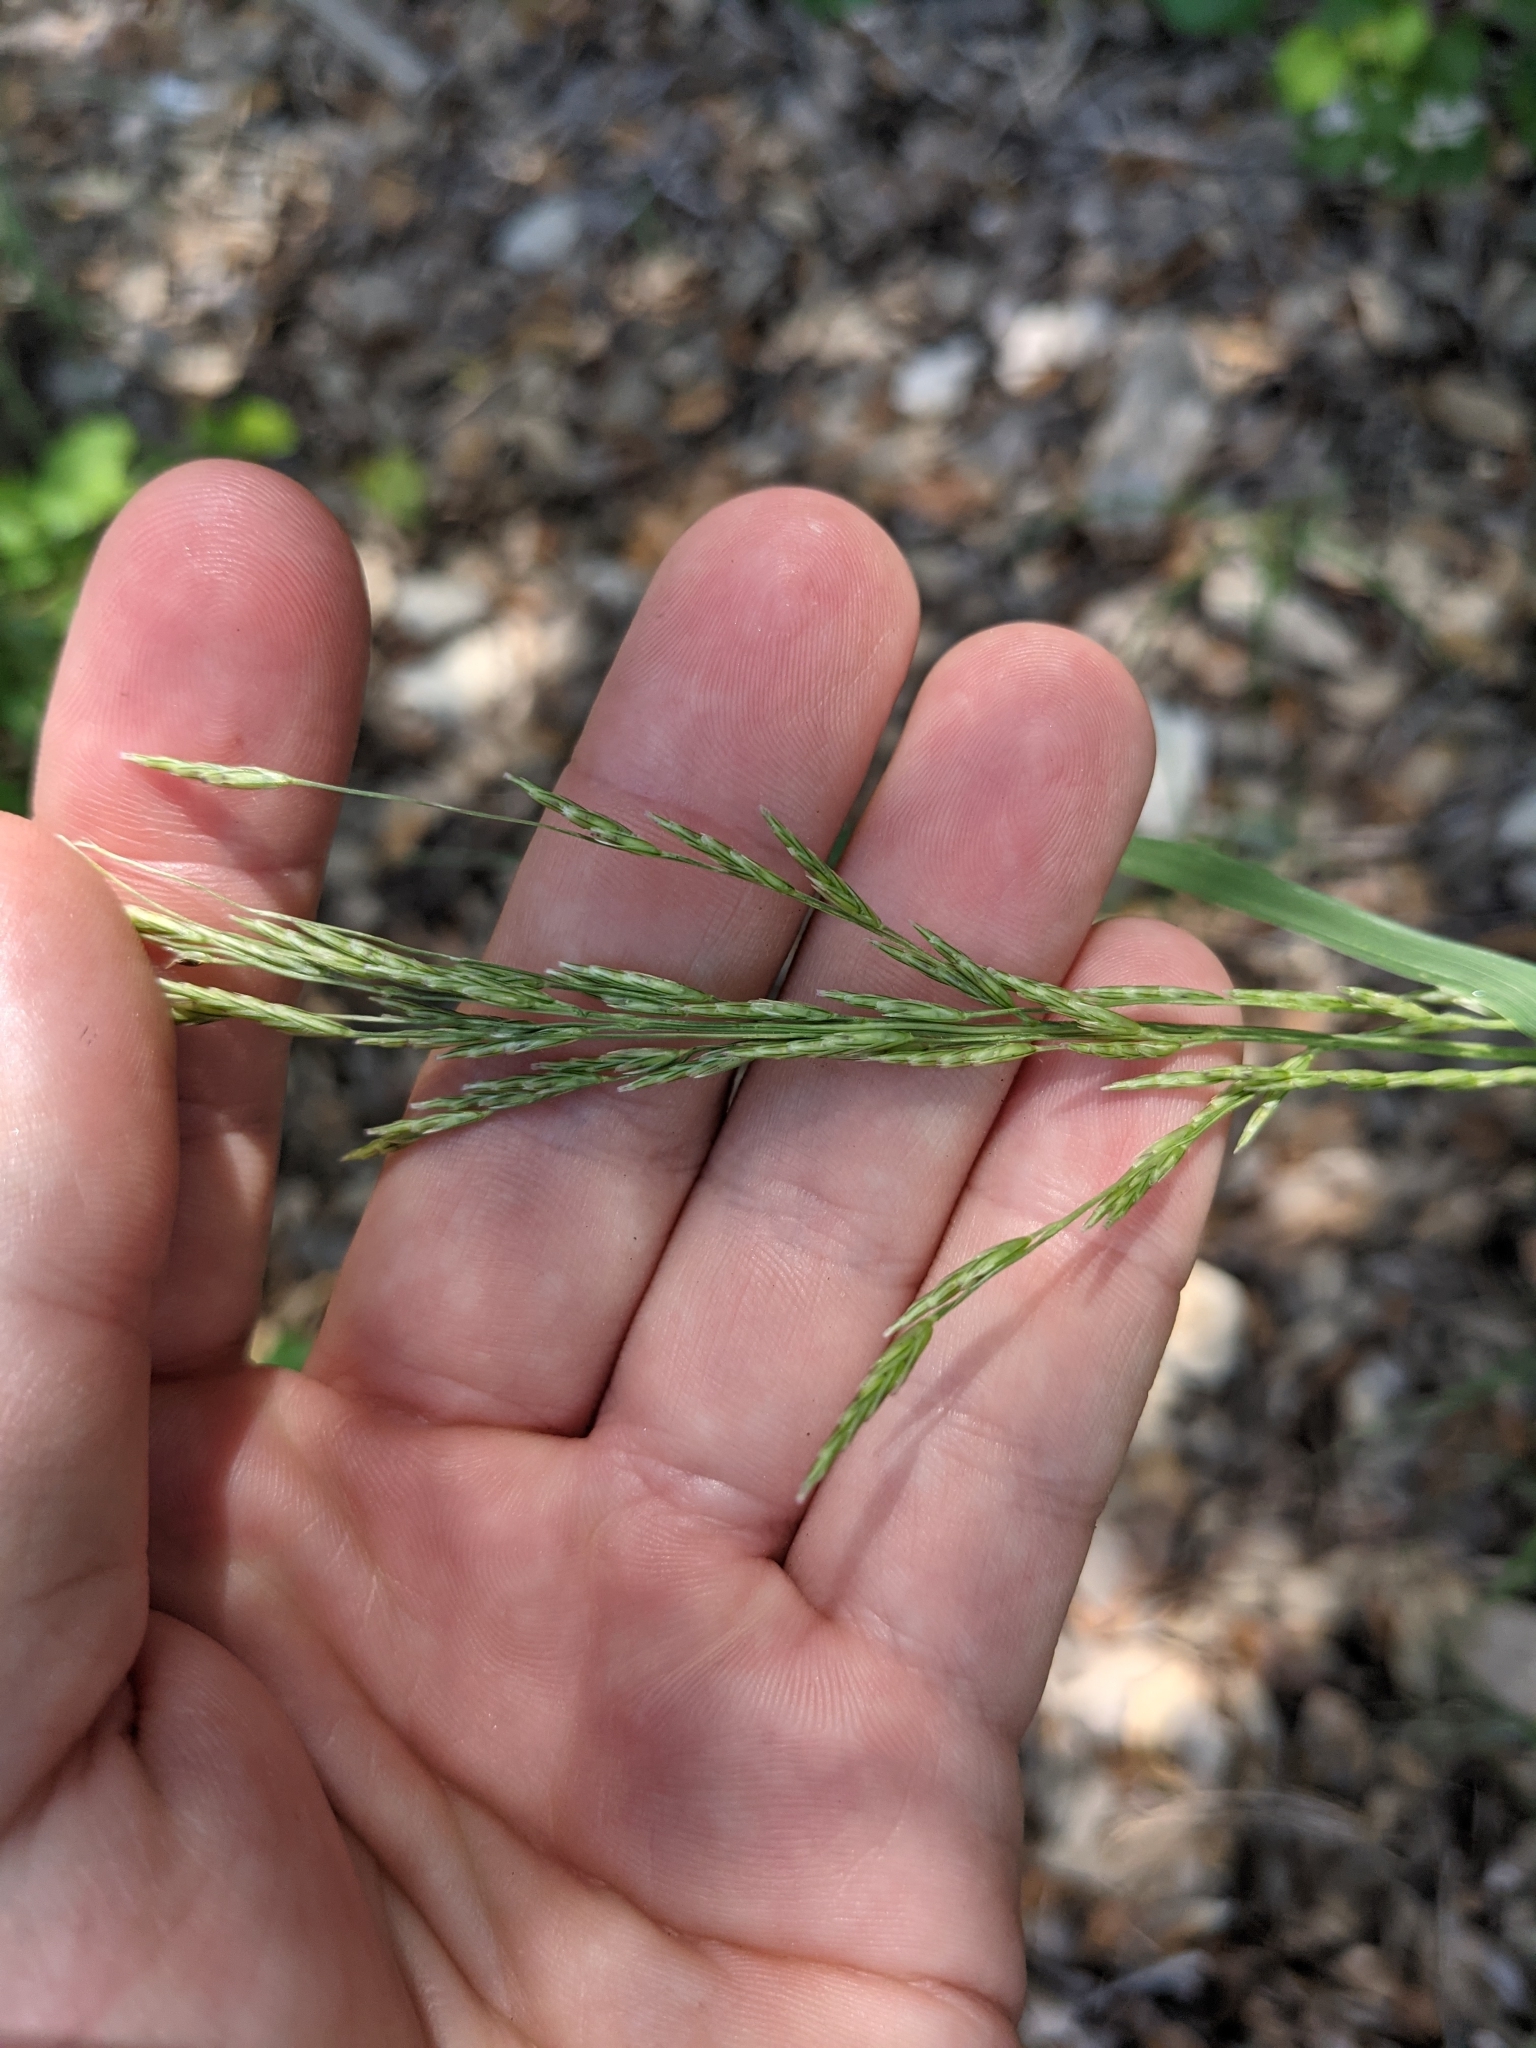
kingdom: Plantae
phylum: Tracheophyta
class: Liliopsida
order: Poales
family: Poaceae
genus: Disakisperma
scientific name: Disakisperma dubium
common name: Green sprangletop
